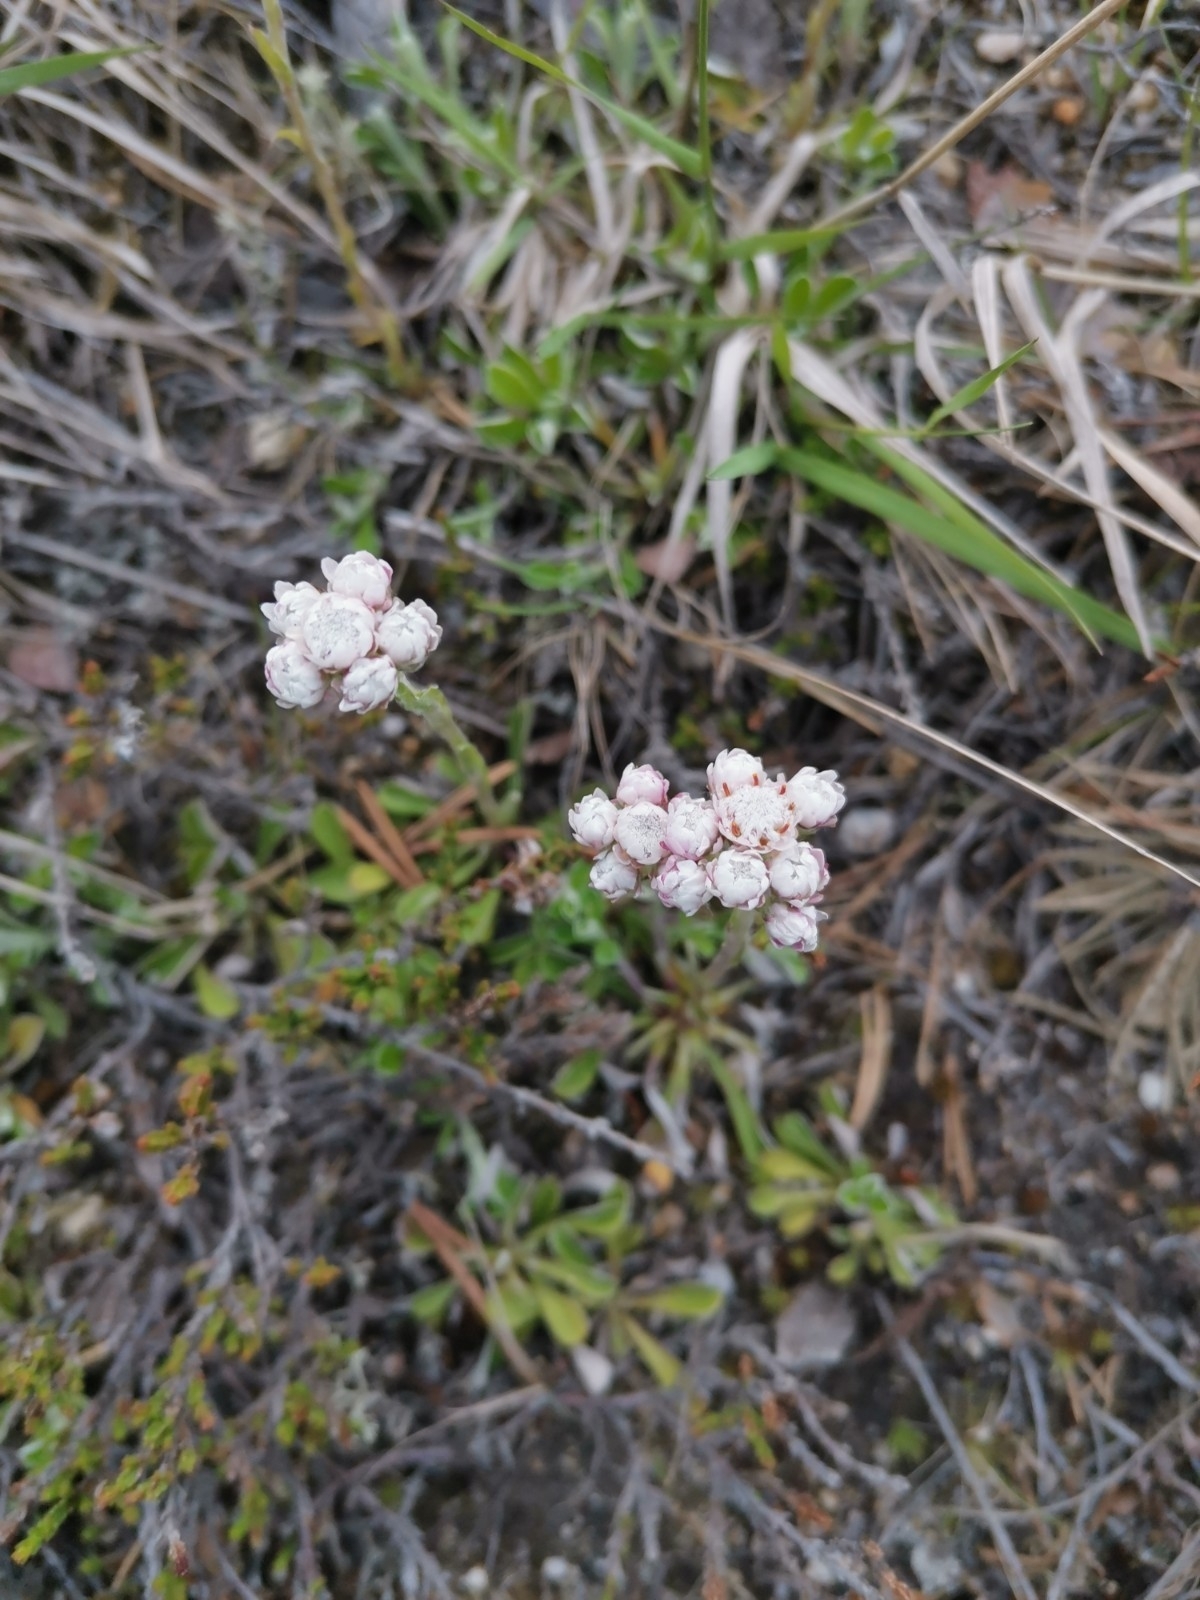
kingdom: Plantae
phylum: Tracheophyta
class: Magnoliopsida
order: Asterales
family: Asteraceae
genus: Antennaria
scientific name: Antennaria dioica
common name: Mountain everlasting
